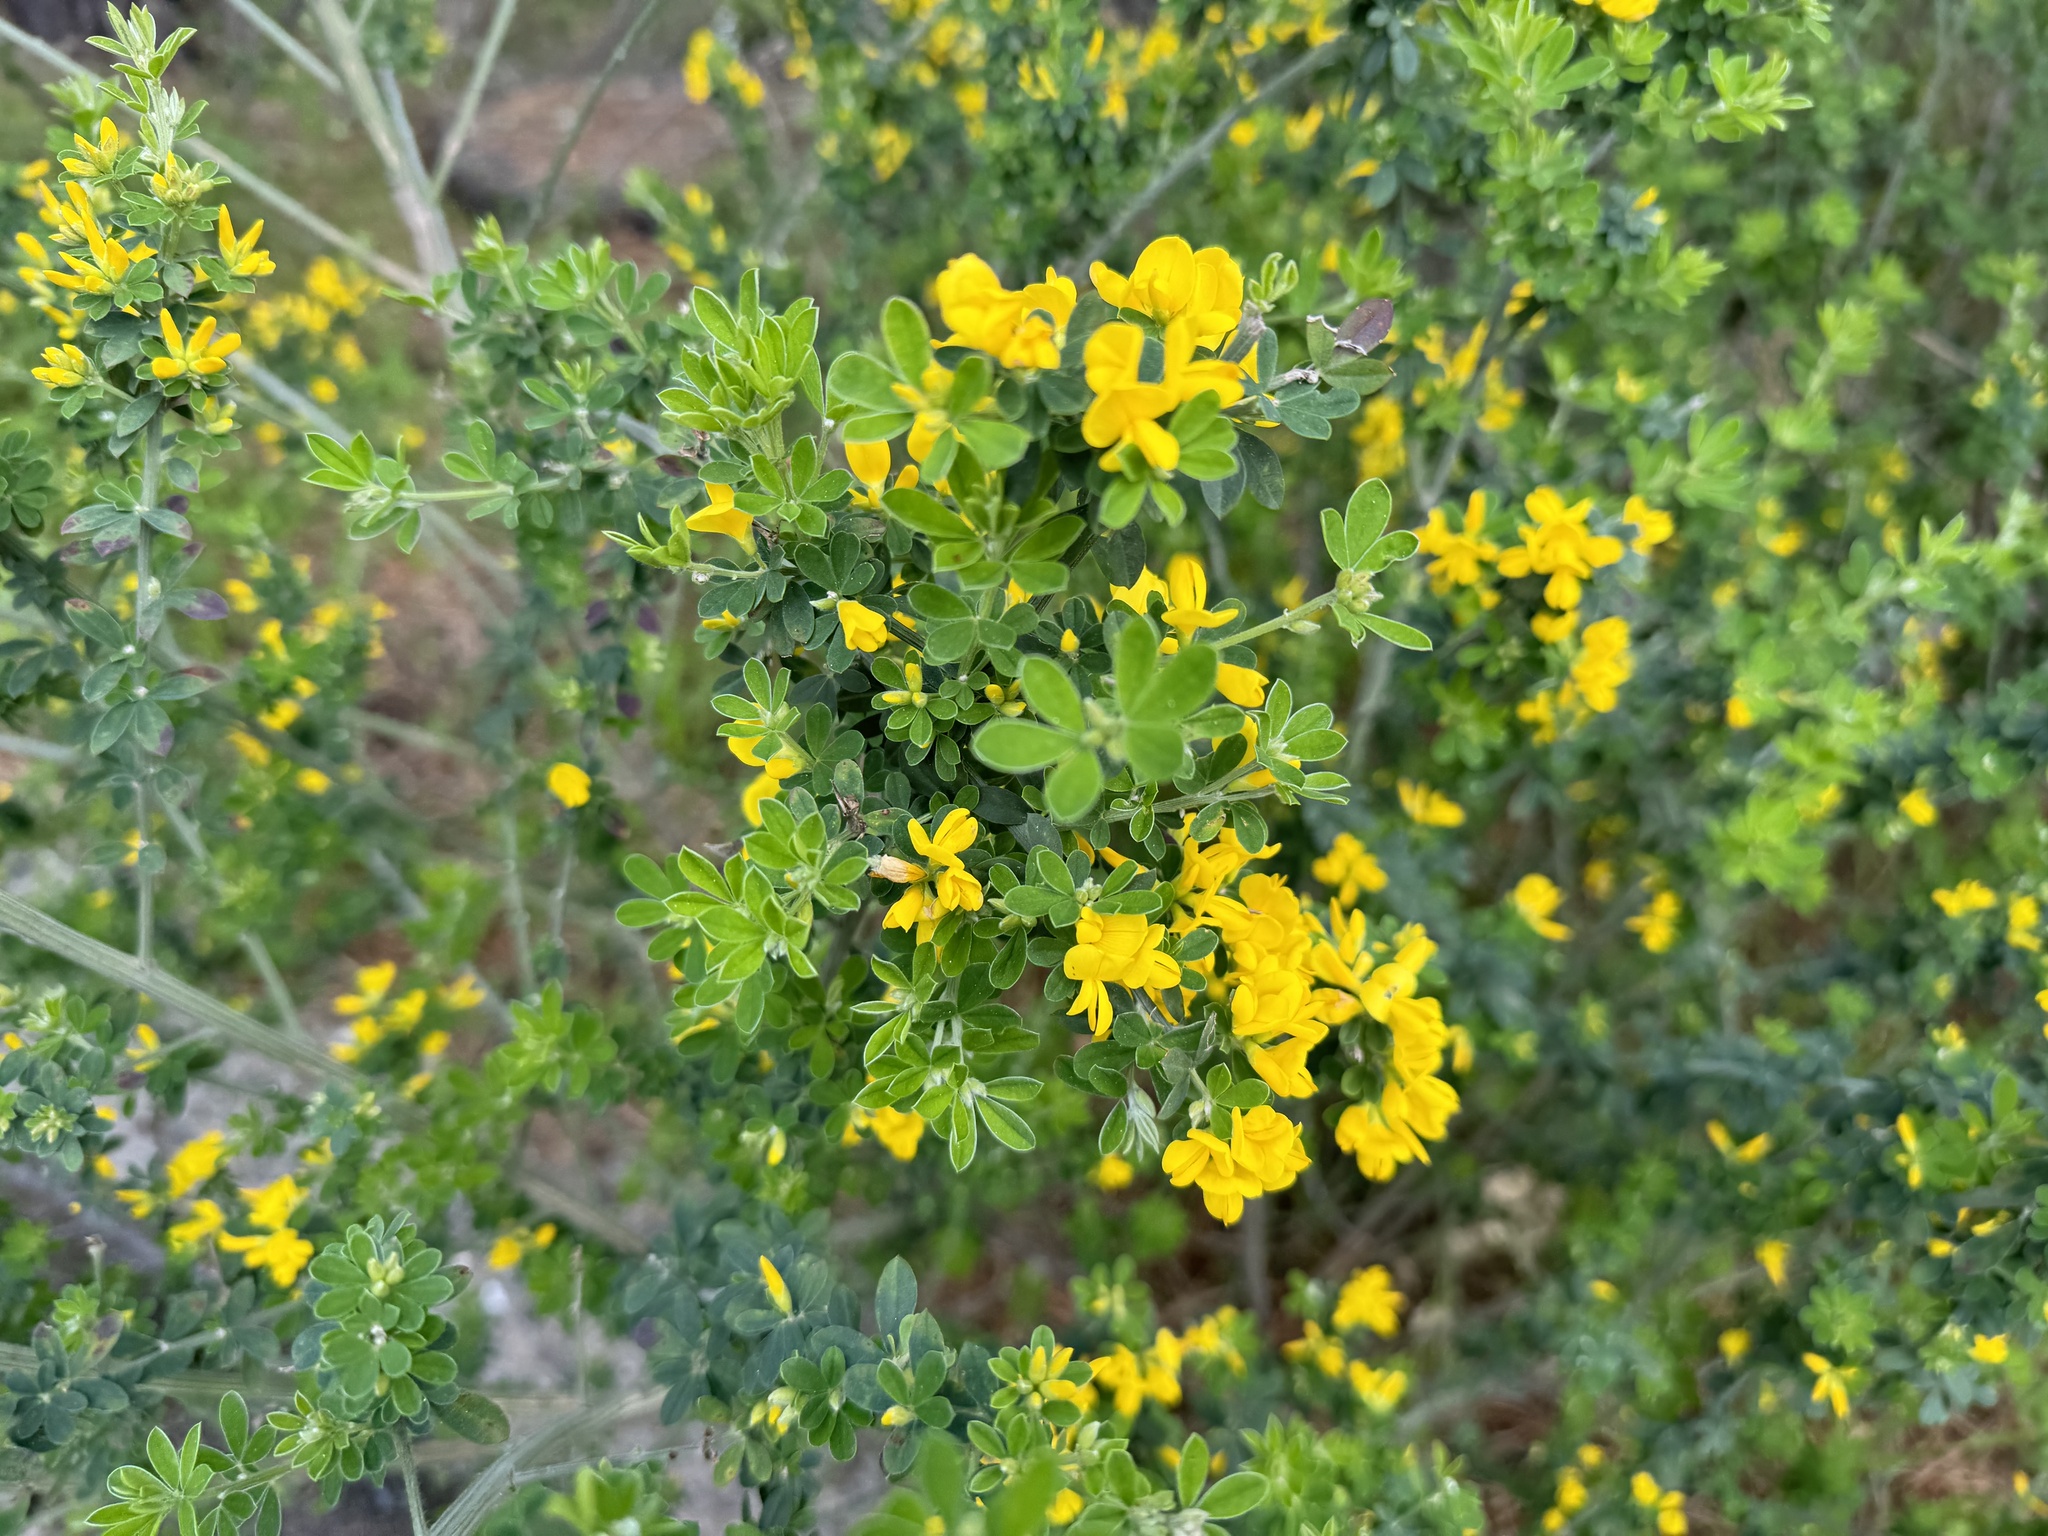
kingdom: Plantae
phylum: Tracheophyta
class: Magnoliopsida
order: Fabales
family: Fabaceae
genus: Genista
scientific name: Genista monspessulana
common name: Montpellier broom
